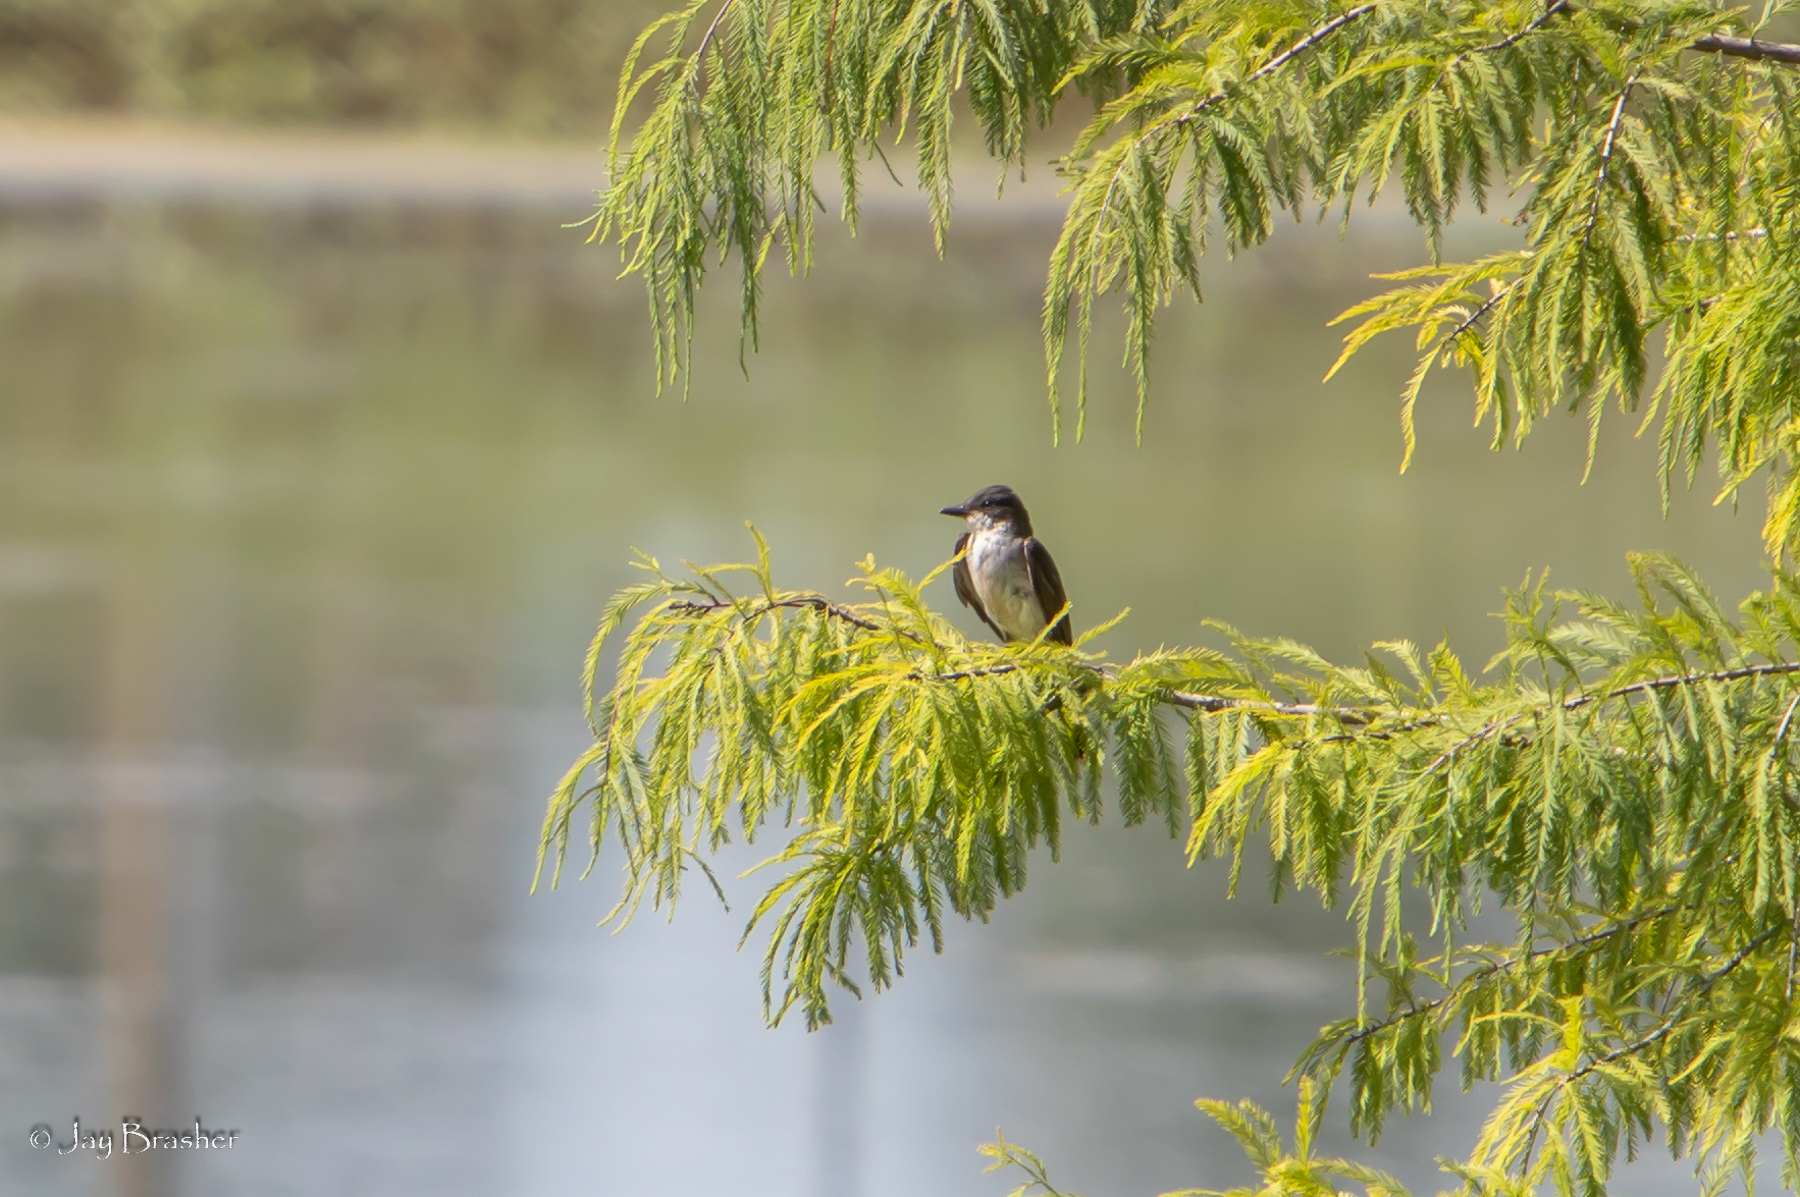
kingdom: Animalia
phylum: Chordata
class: Aves
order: Passeriformes
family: Tyrannidae
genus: Tyrannus
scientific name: Tyrannus tyrannus
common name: Eastern kingbird
